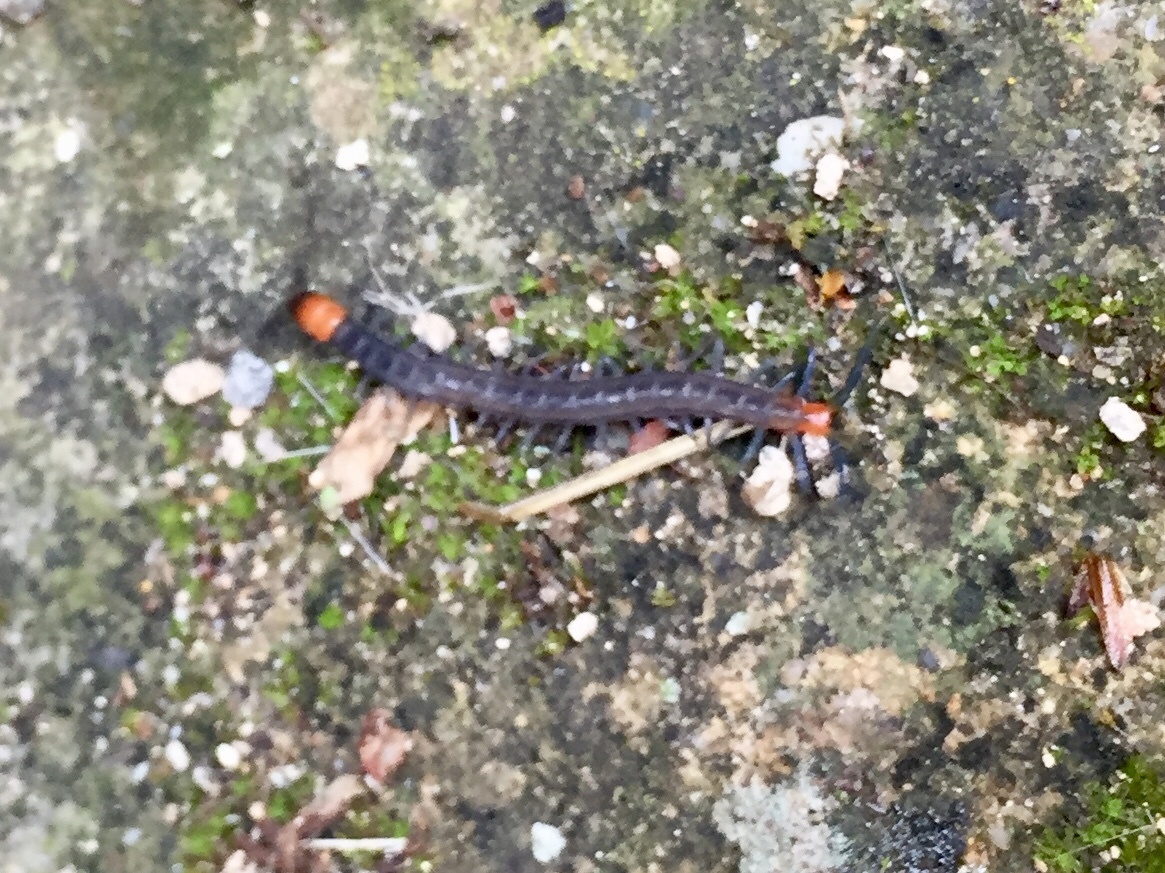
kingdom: Animalia
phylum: Arthropoda
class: Chilopoda
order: Scolopendromorpha
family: Scolopendridae
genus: Scolopendra
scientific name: Scolopendra cingulata
